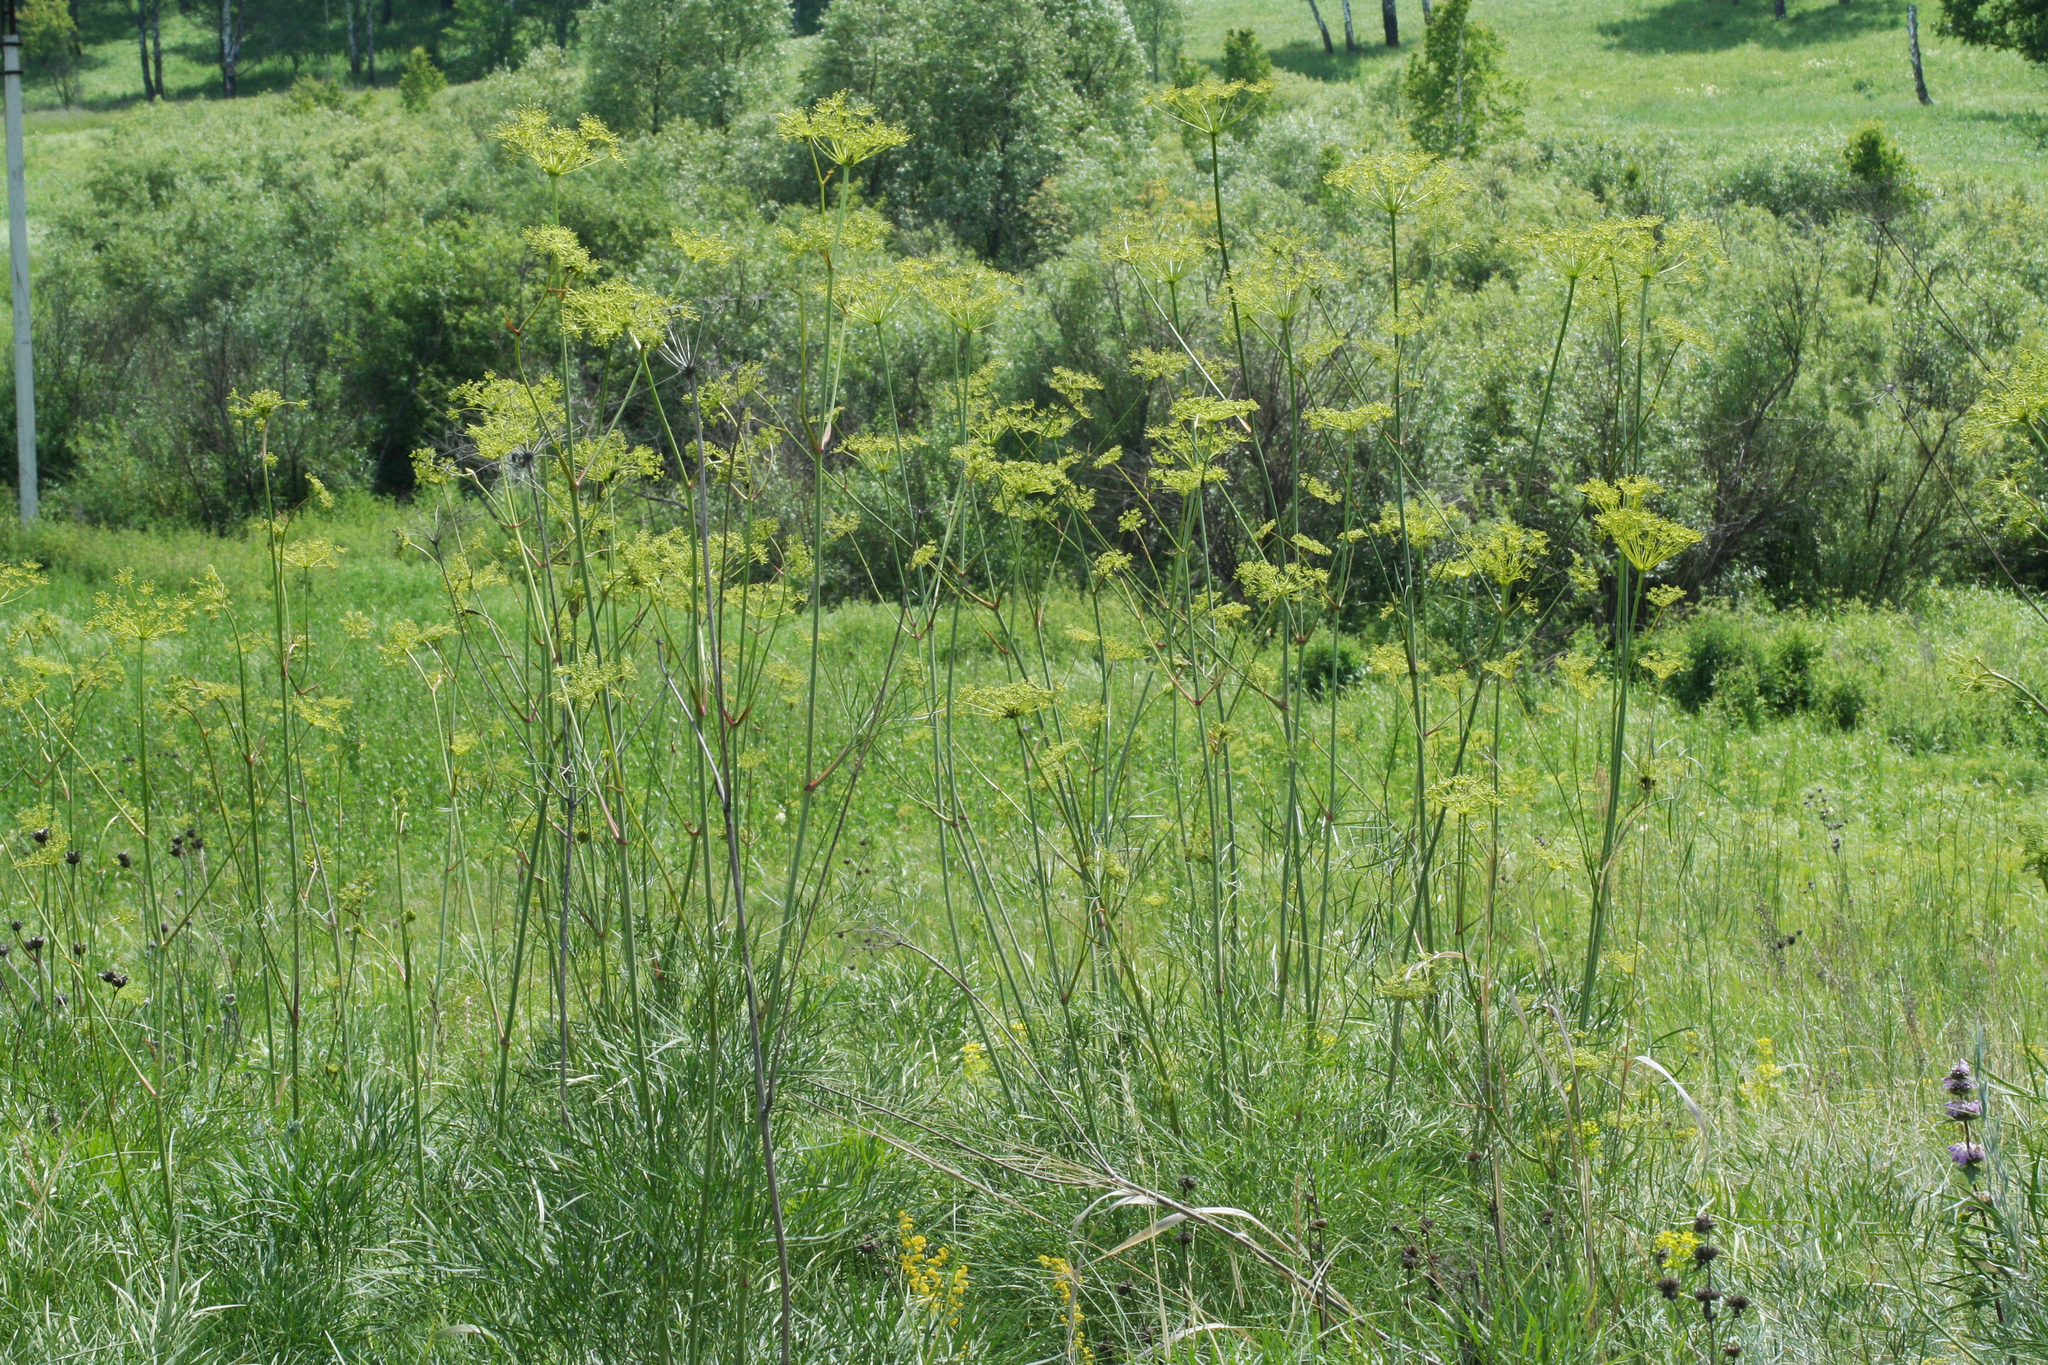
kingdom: Plantae
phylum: Tracheophyta
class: Magnoliopsida
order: Apiales
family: Apiaceae
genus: Peucedanum
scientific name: Peucedanum morisonii
